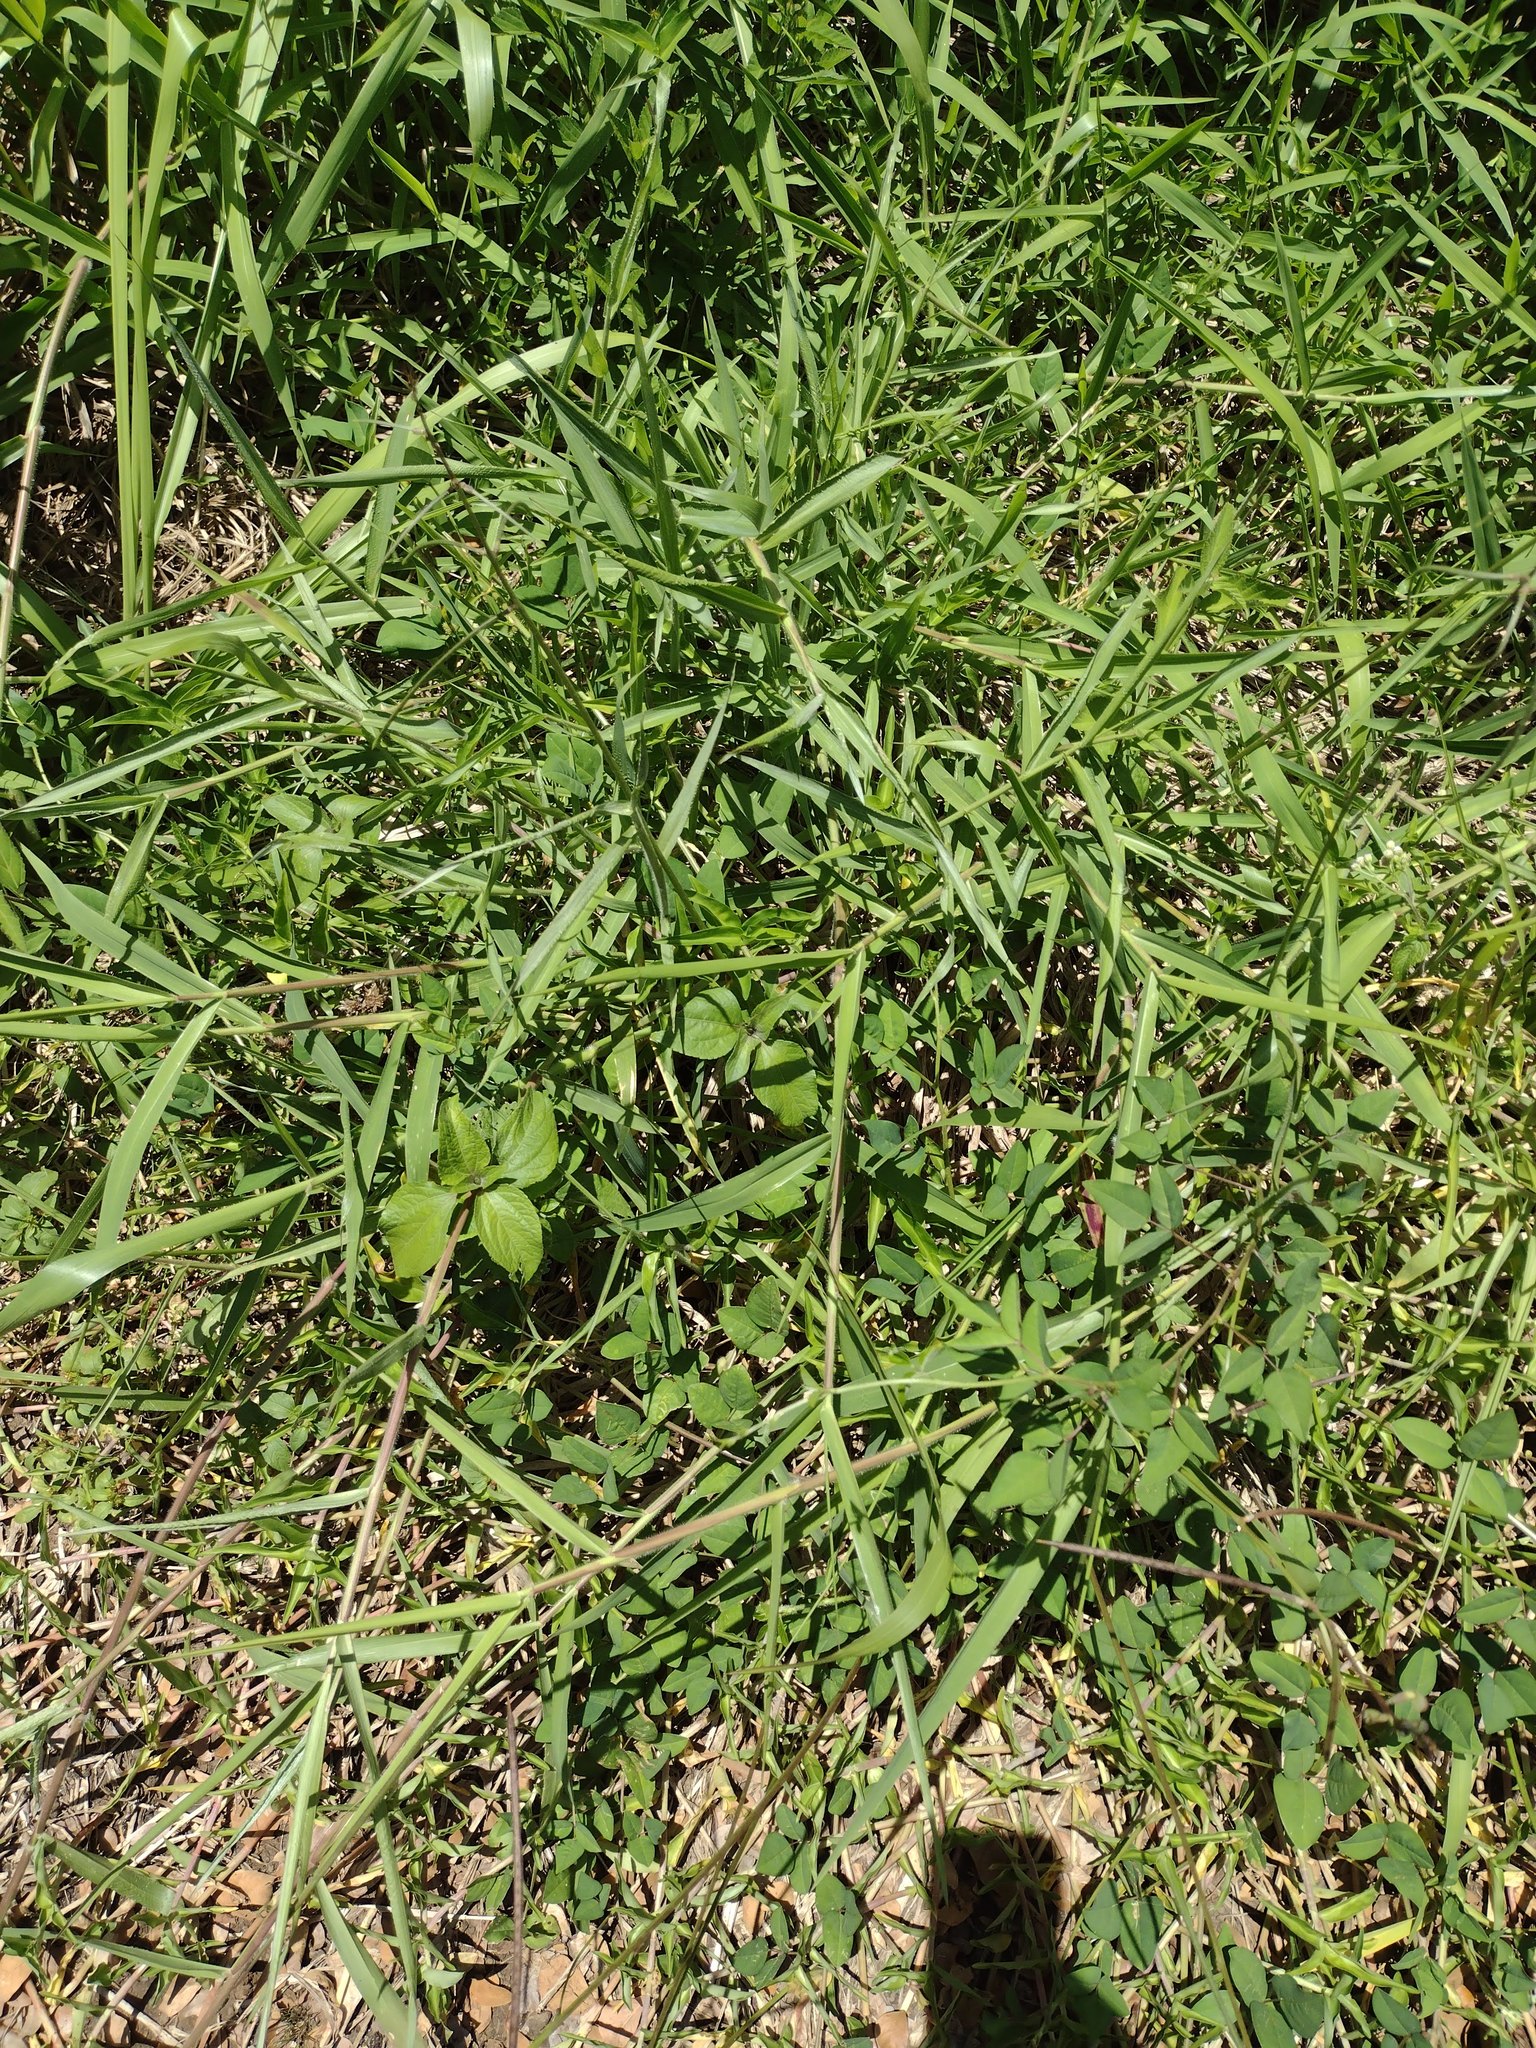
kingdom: Plantae
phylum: Tracheophyta
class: Liliopsida
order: Poales
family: Poaceae
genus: Urochloa
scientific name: Urochloa mutica
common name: Para grass
